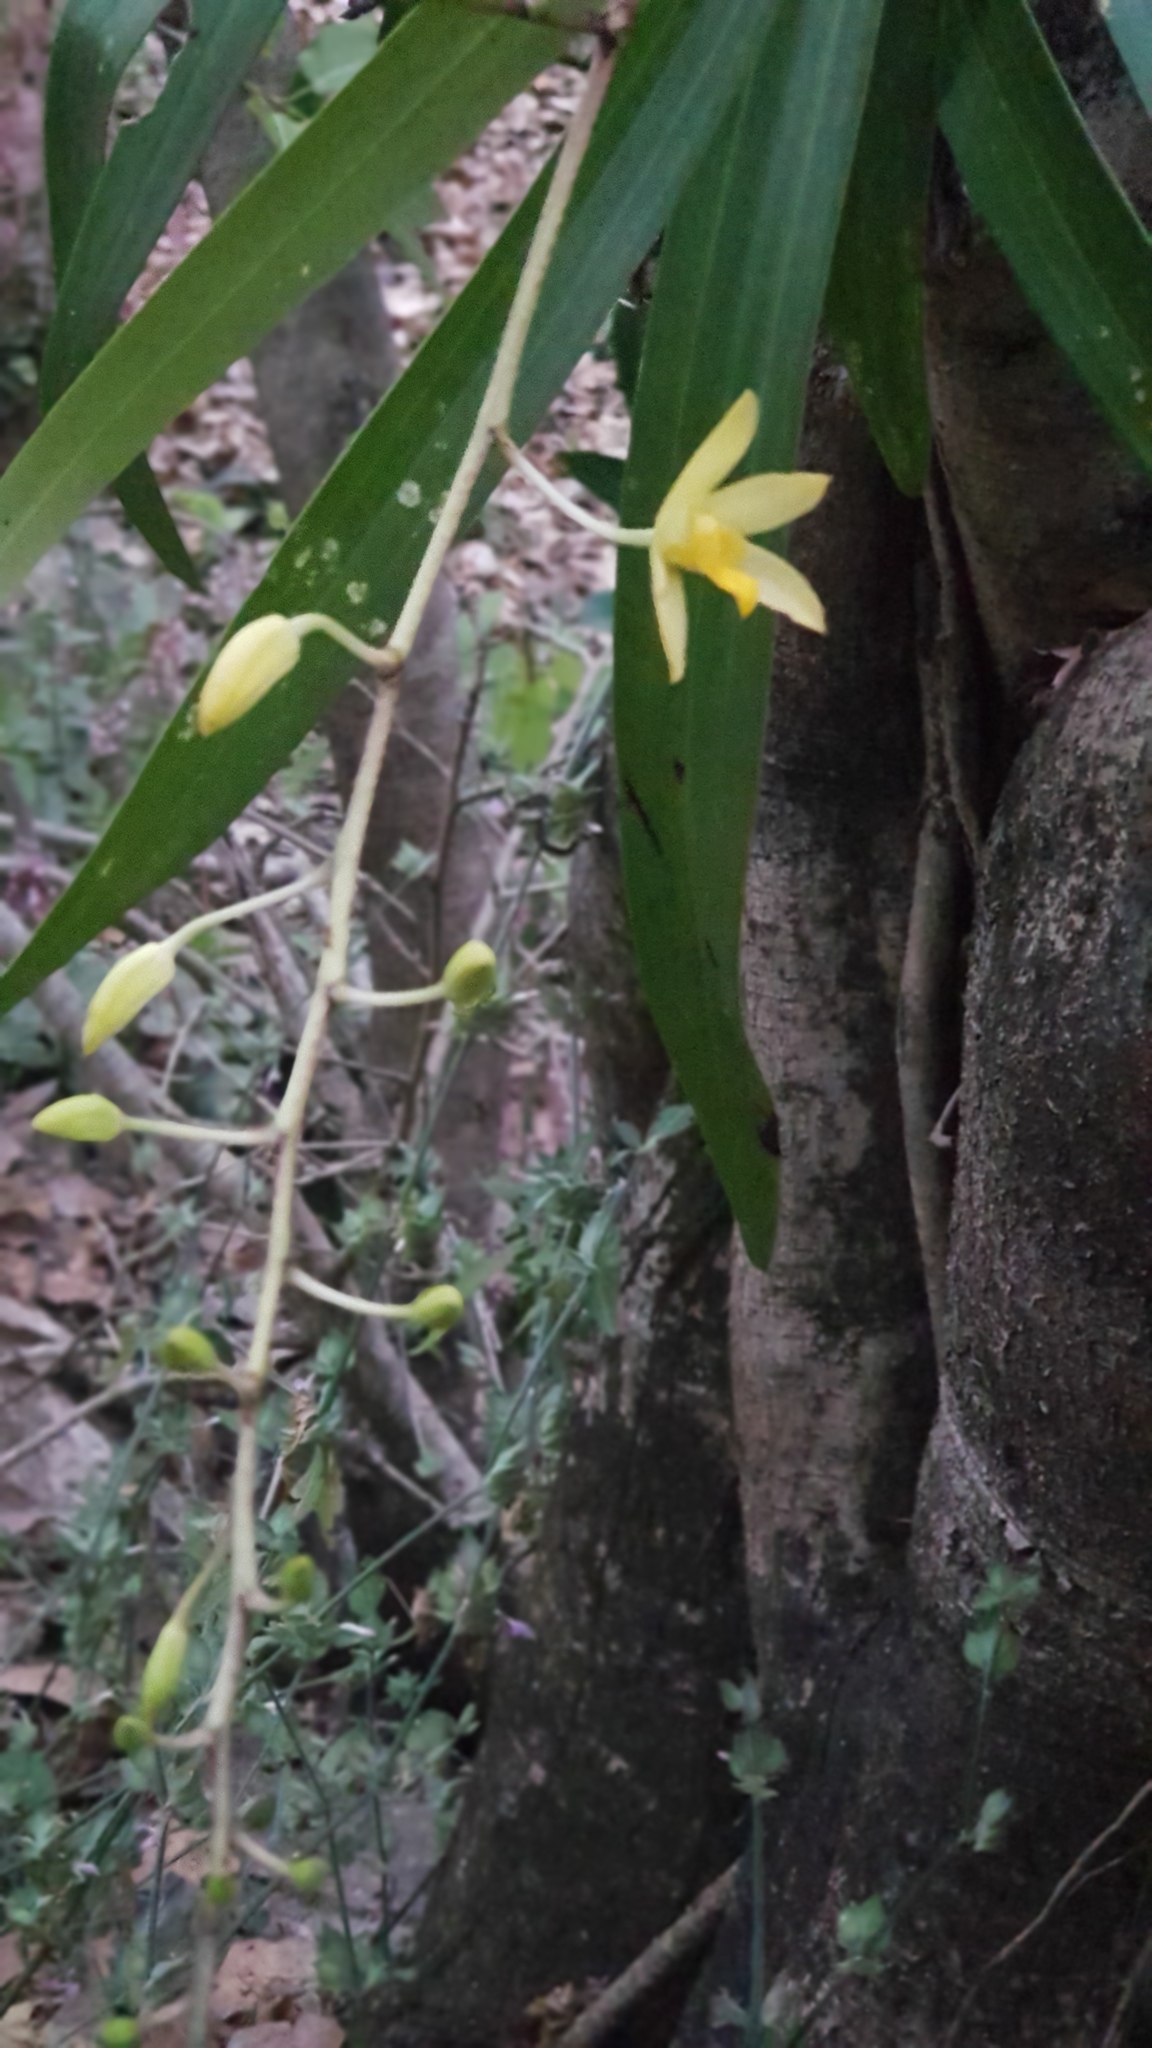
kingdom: Plantae
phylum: Tracheophyta
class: Liliopsida
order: Asparagales
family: Orchidaceae
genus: Ansellia
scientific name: Ansellia africana
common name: African ansellia
